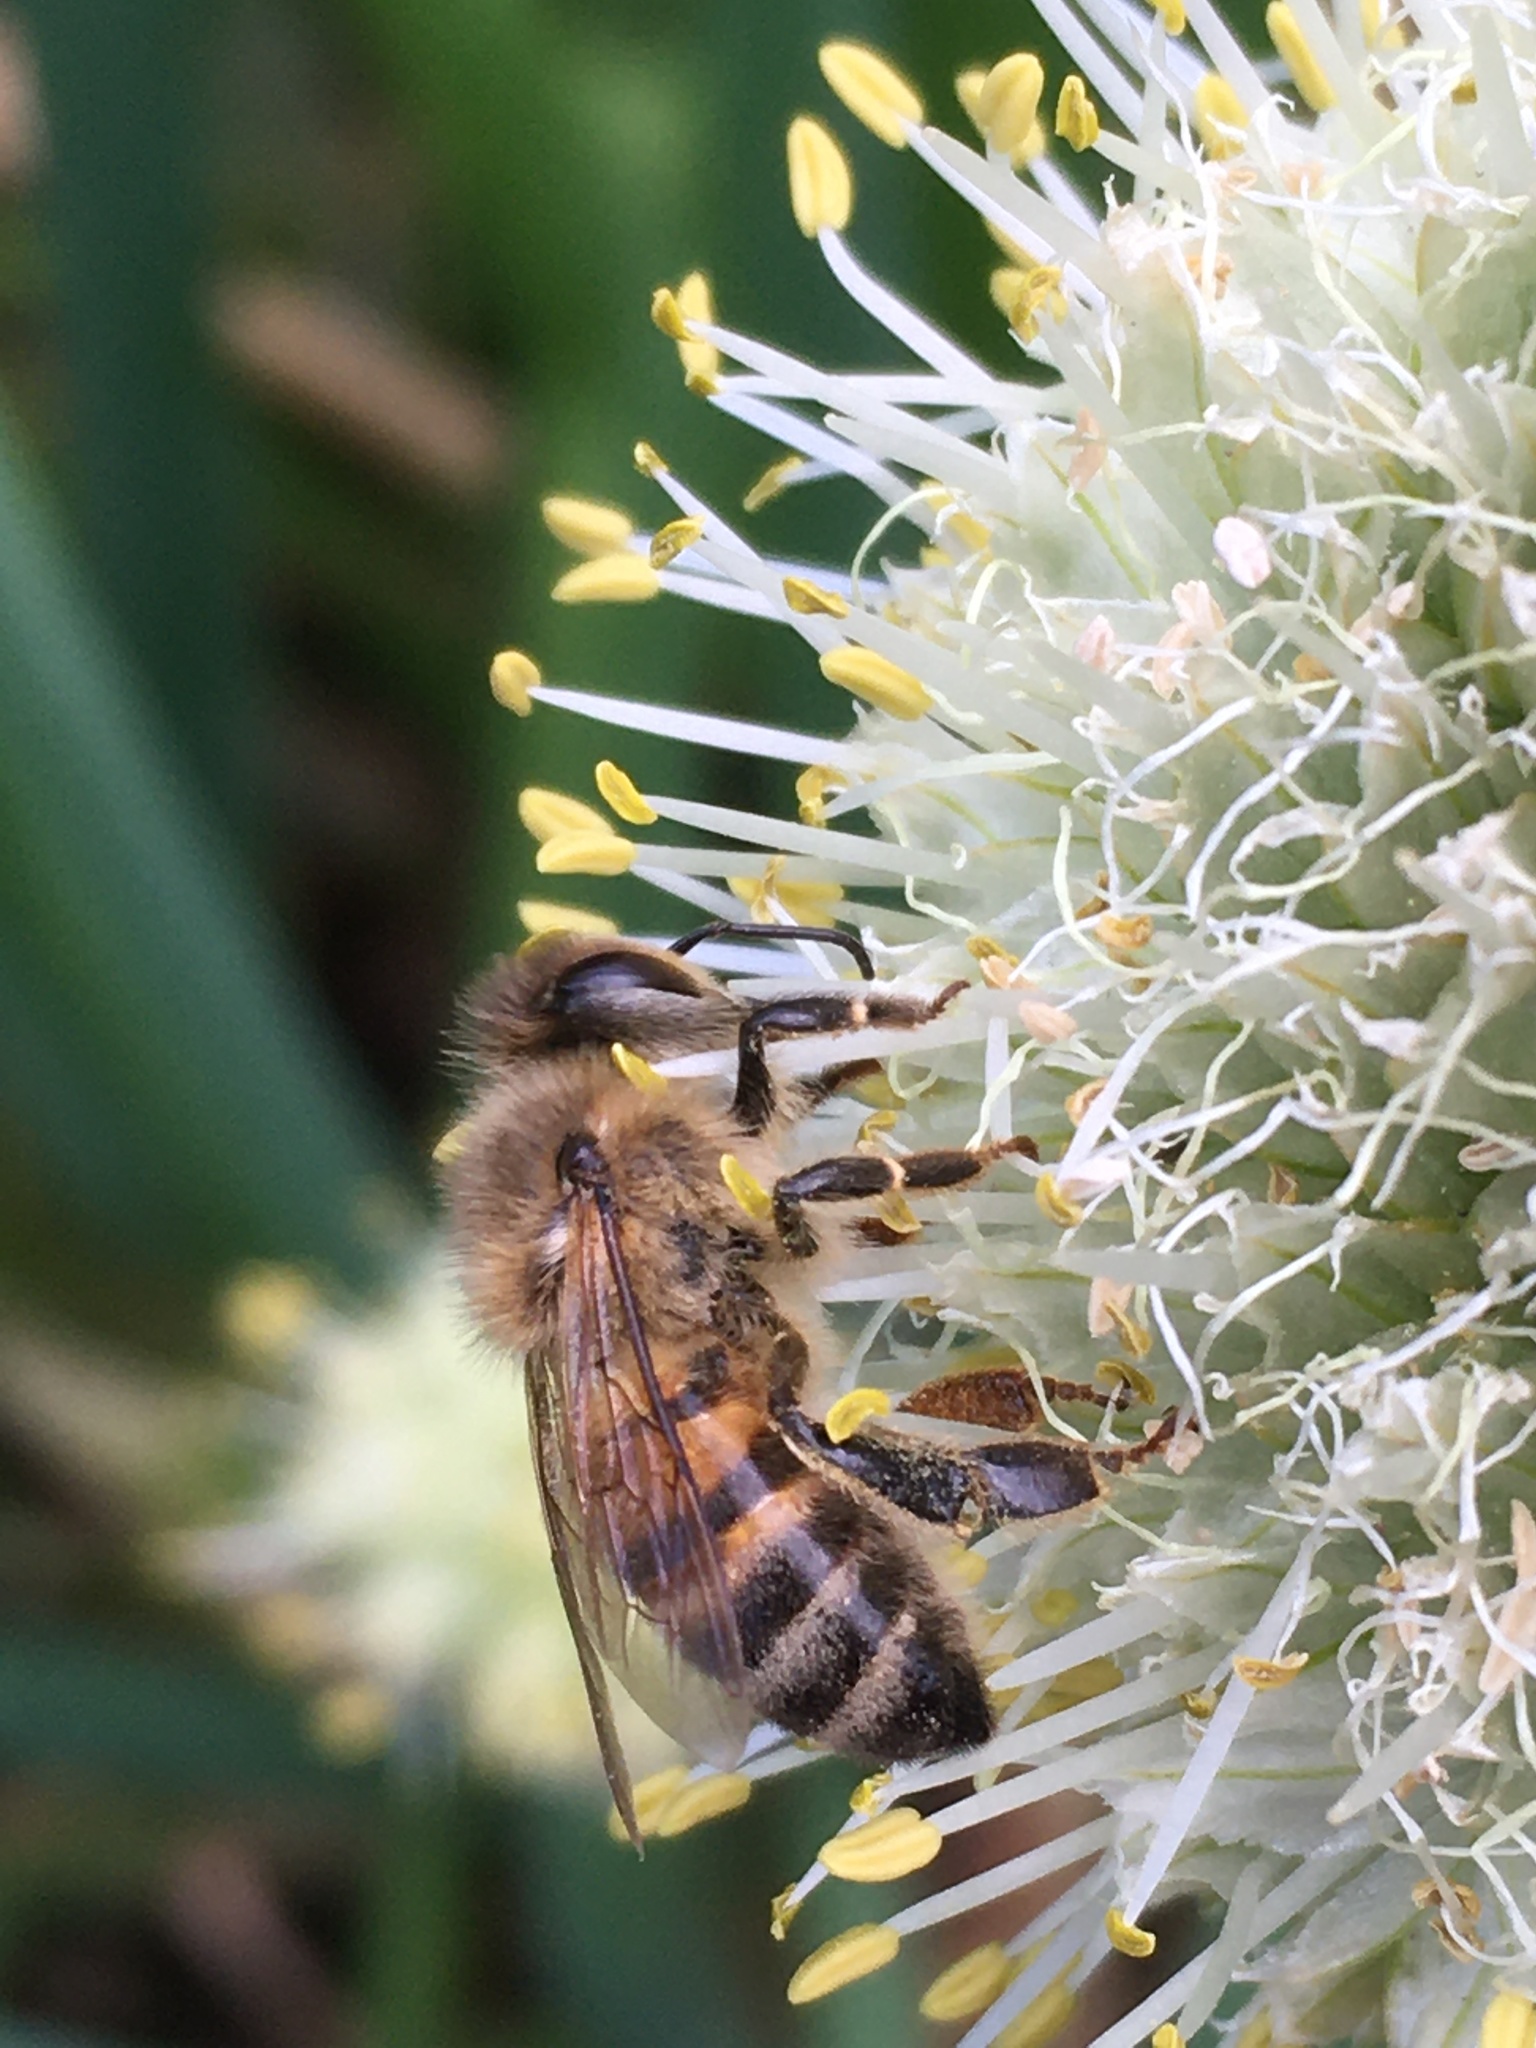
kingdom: Animalia
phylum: Arthropoda
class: Insecta
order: Hymenoptera
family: Apidae
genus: Apis
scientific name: Apis mellifera
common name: Honey bee
